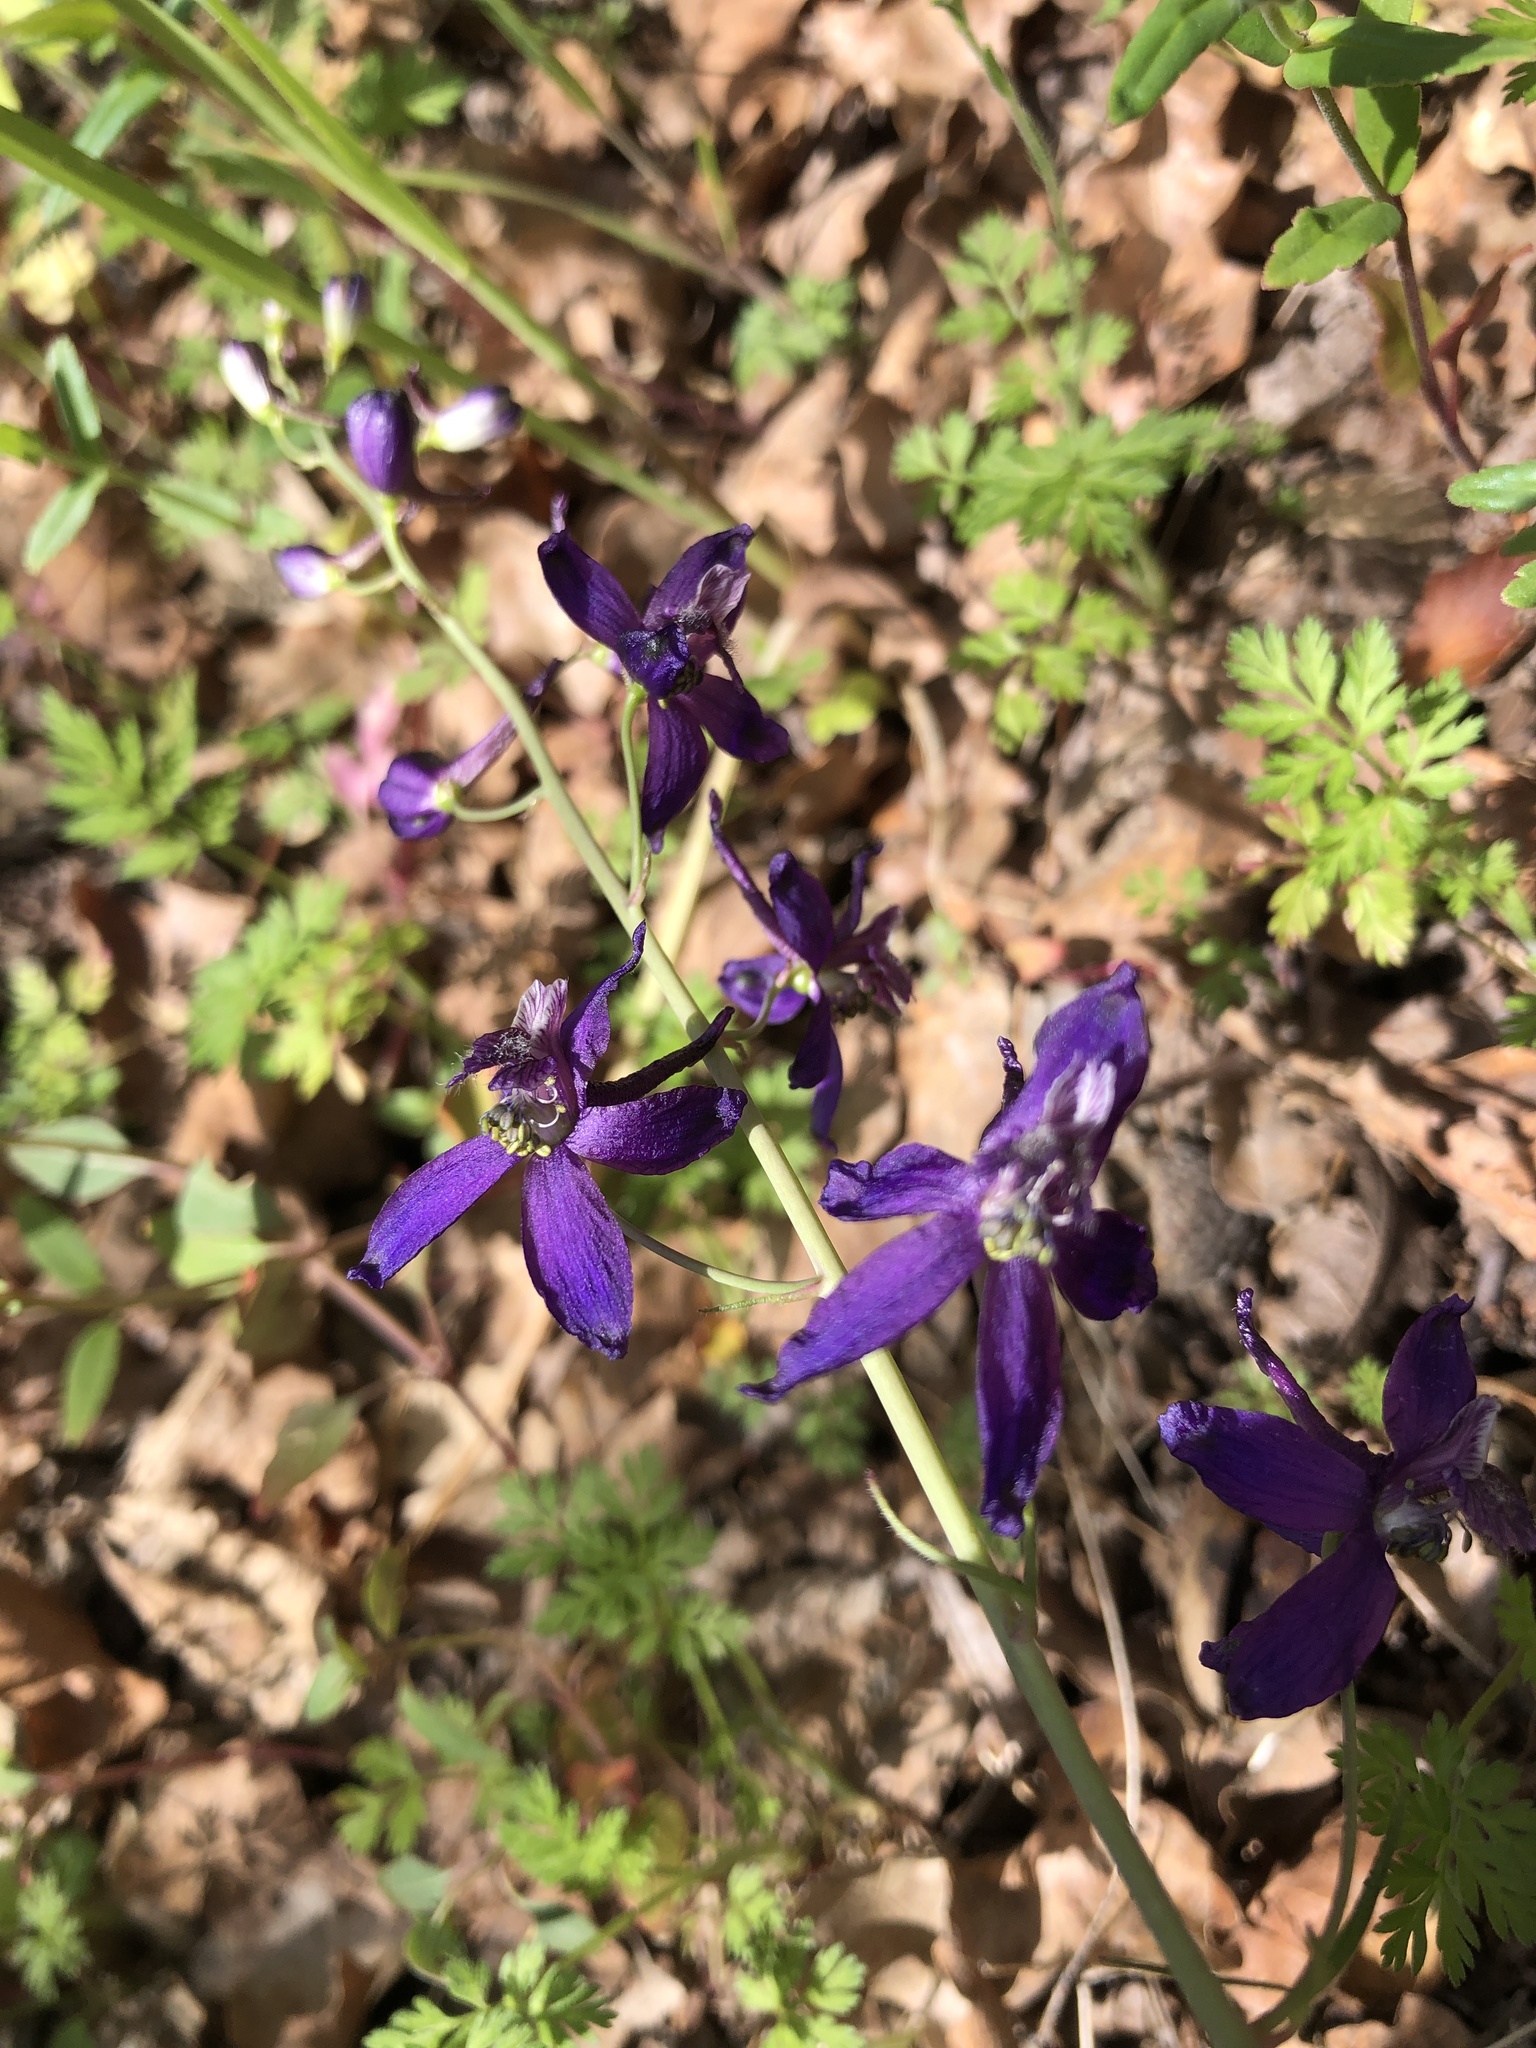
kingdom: Plantae
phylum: Tracheophyta
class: Magnoliopsida
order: Ranunculales
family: Ranunculaceae
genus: Delphinium
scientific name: Delphinium patens
